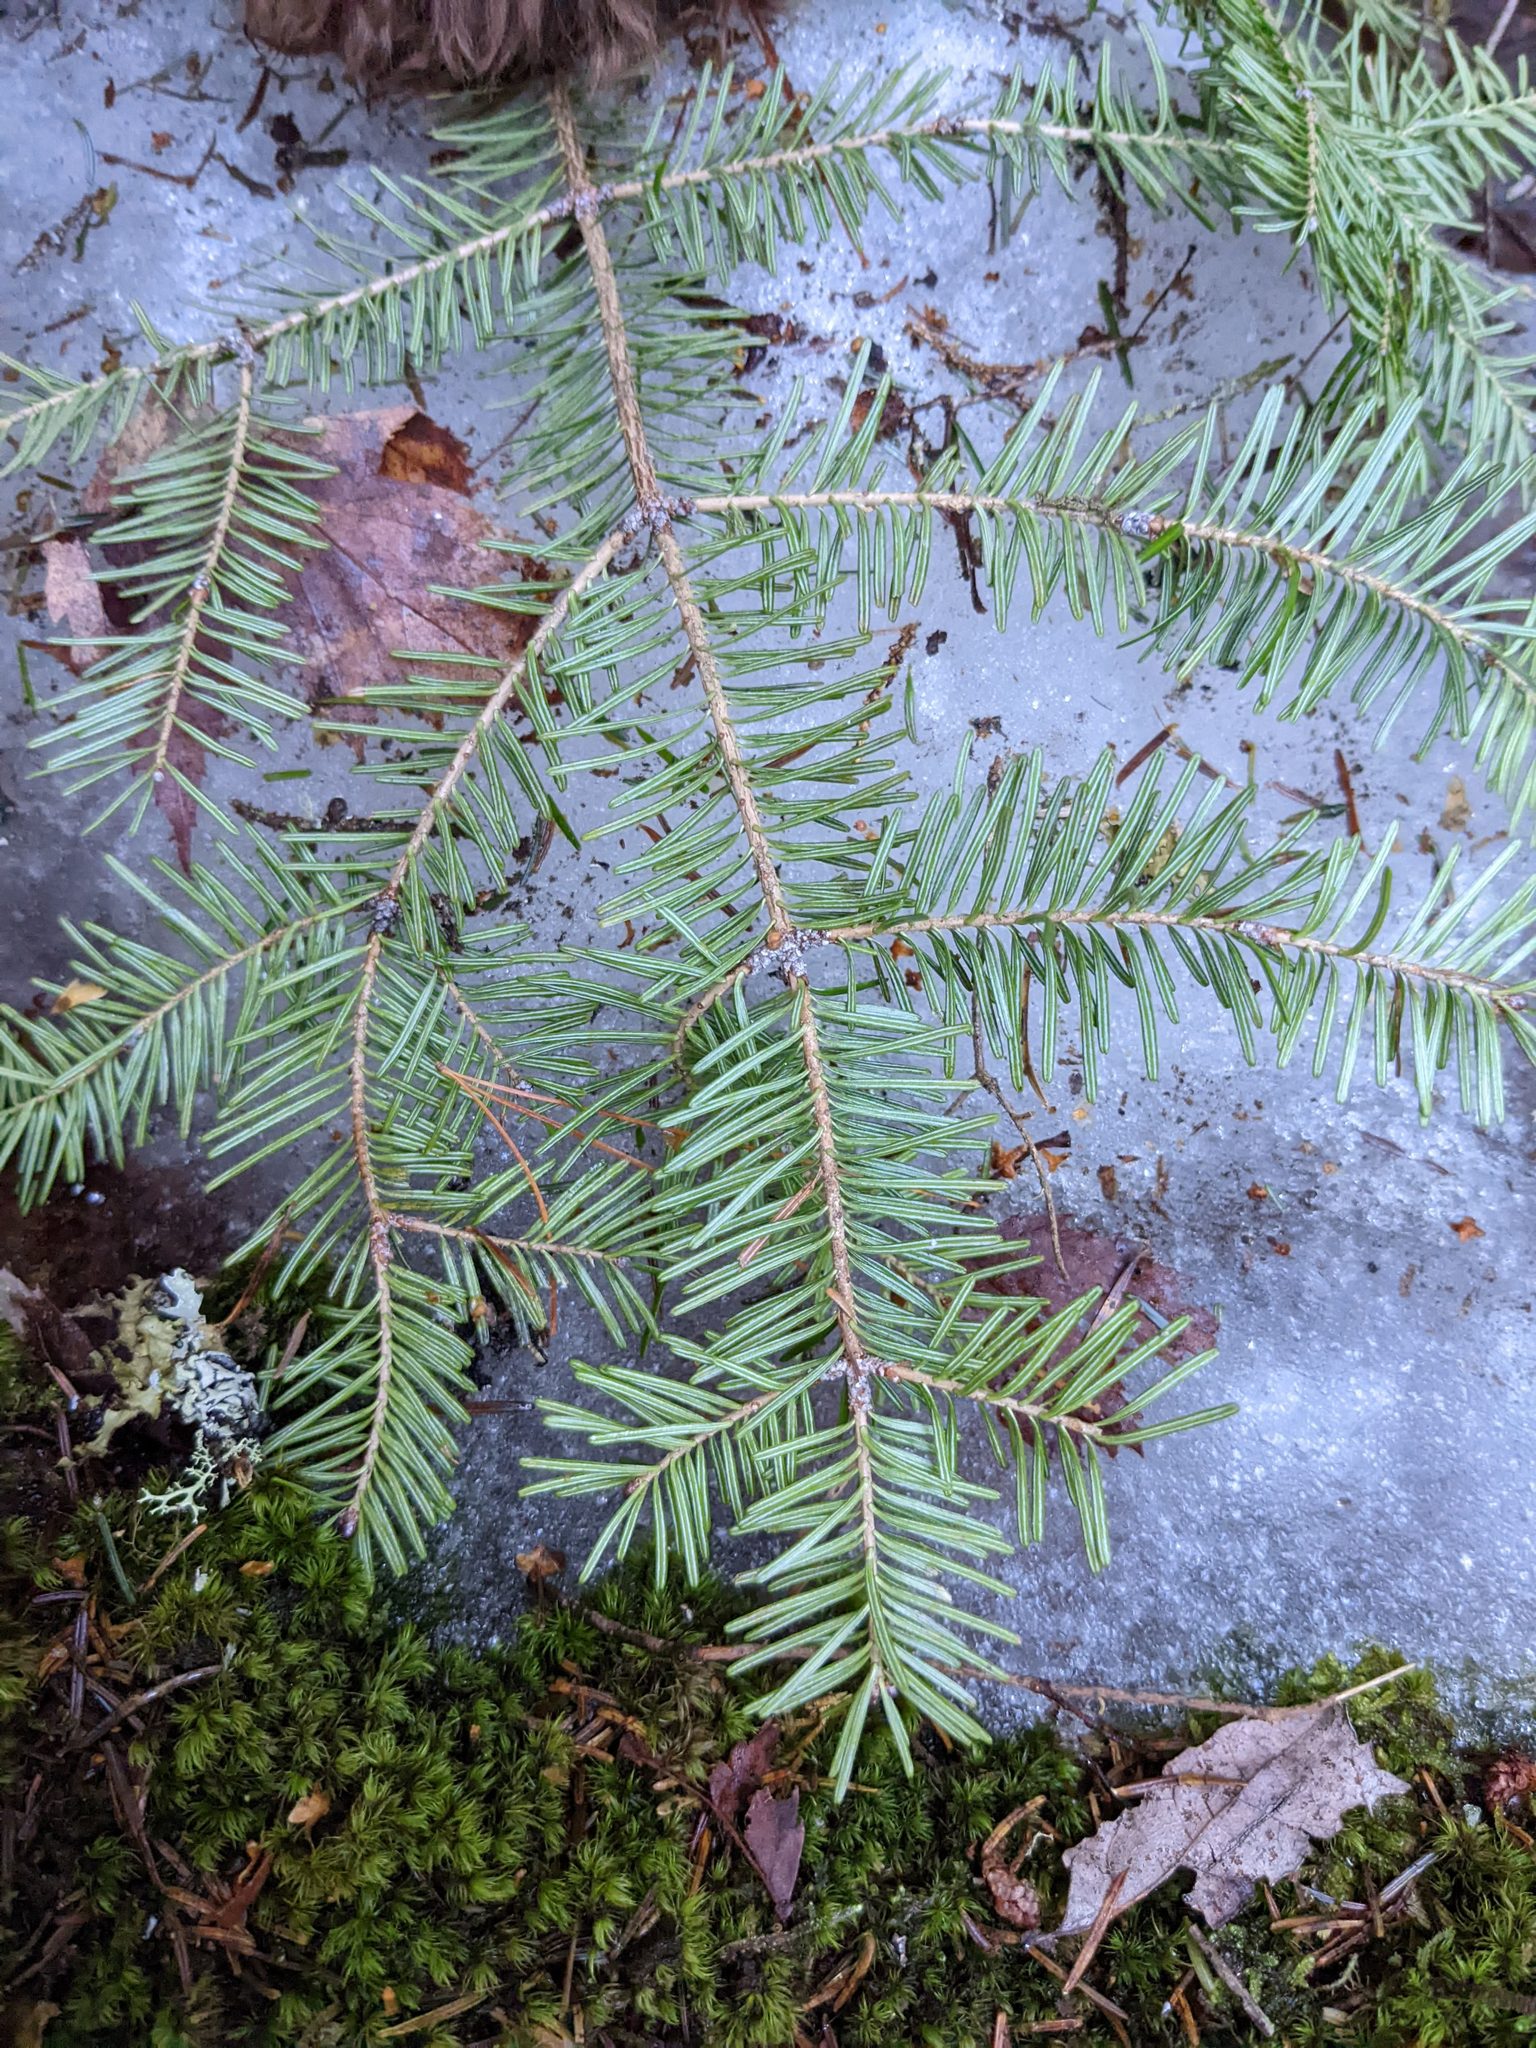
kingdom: Plantae
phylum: Tracheophyta
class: Pinopsida
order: Pinales
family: Pinaceae
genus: Abies
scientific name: Abies balsamea
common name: Balsam fir
